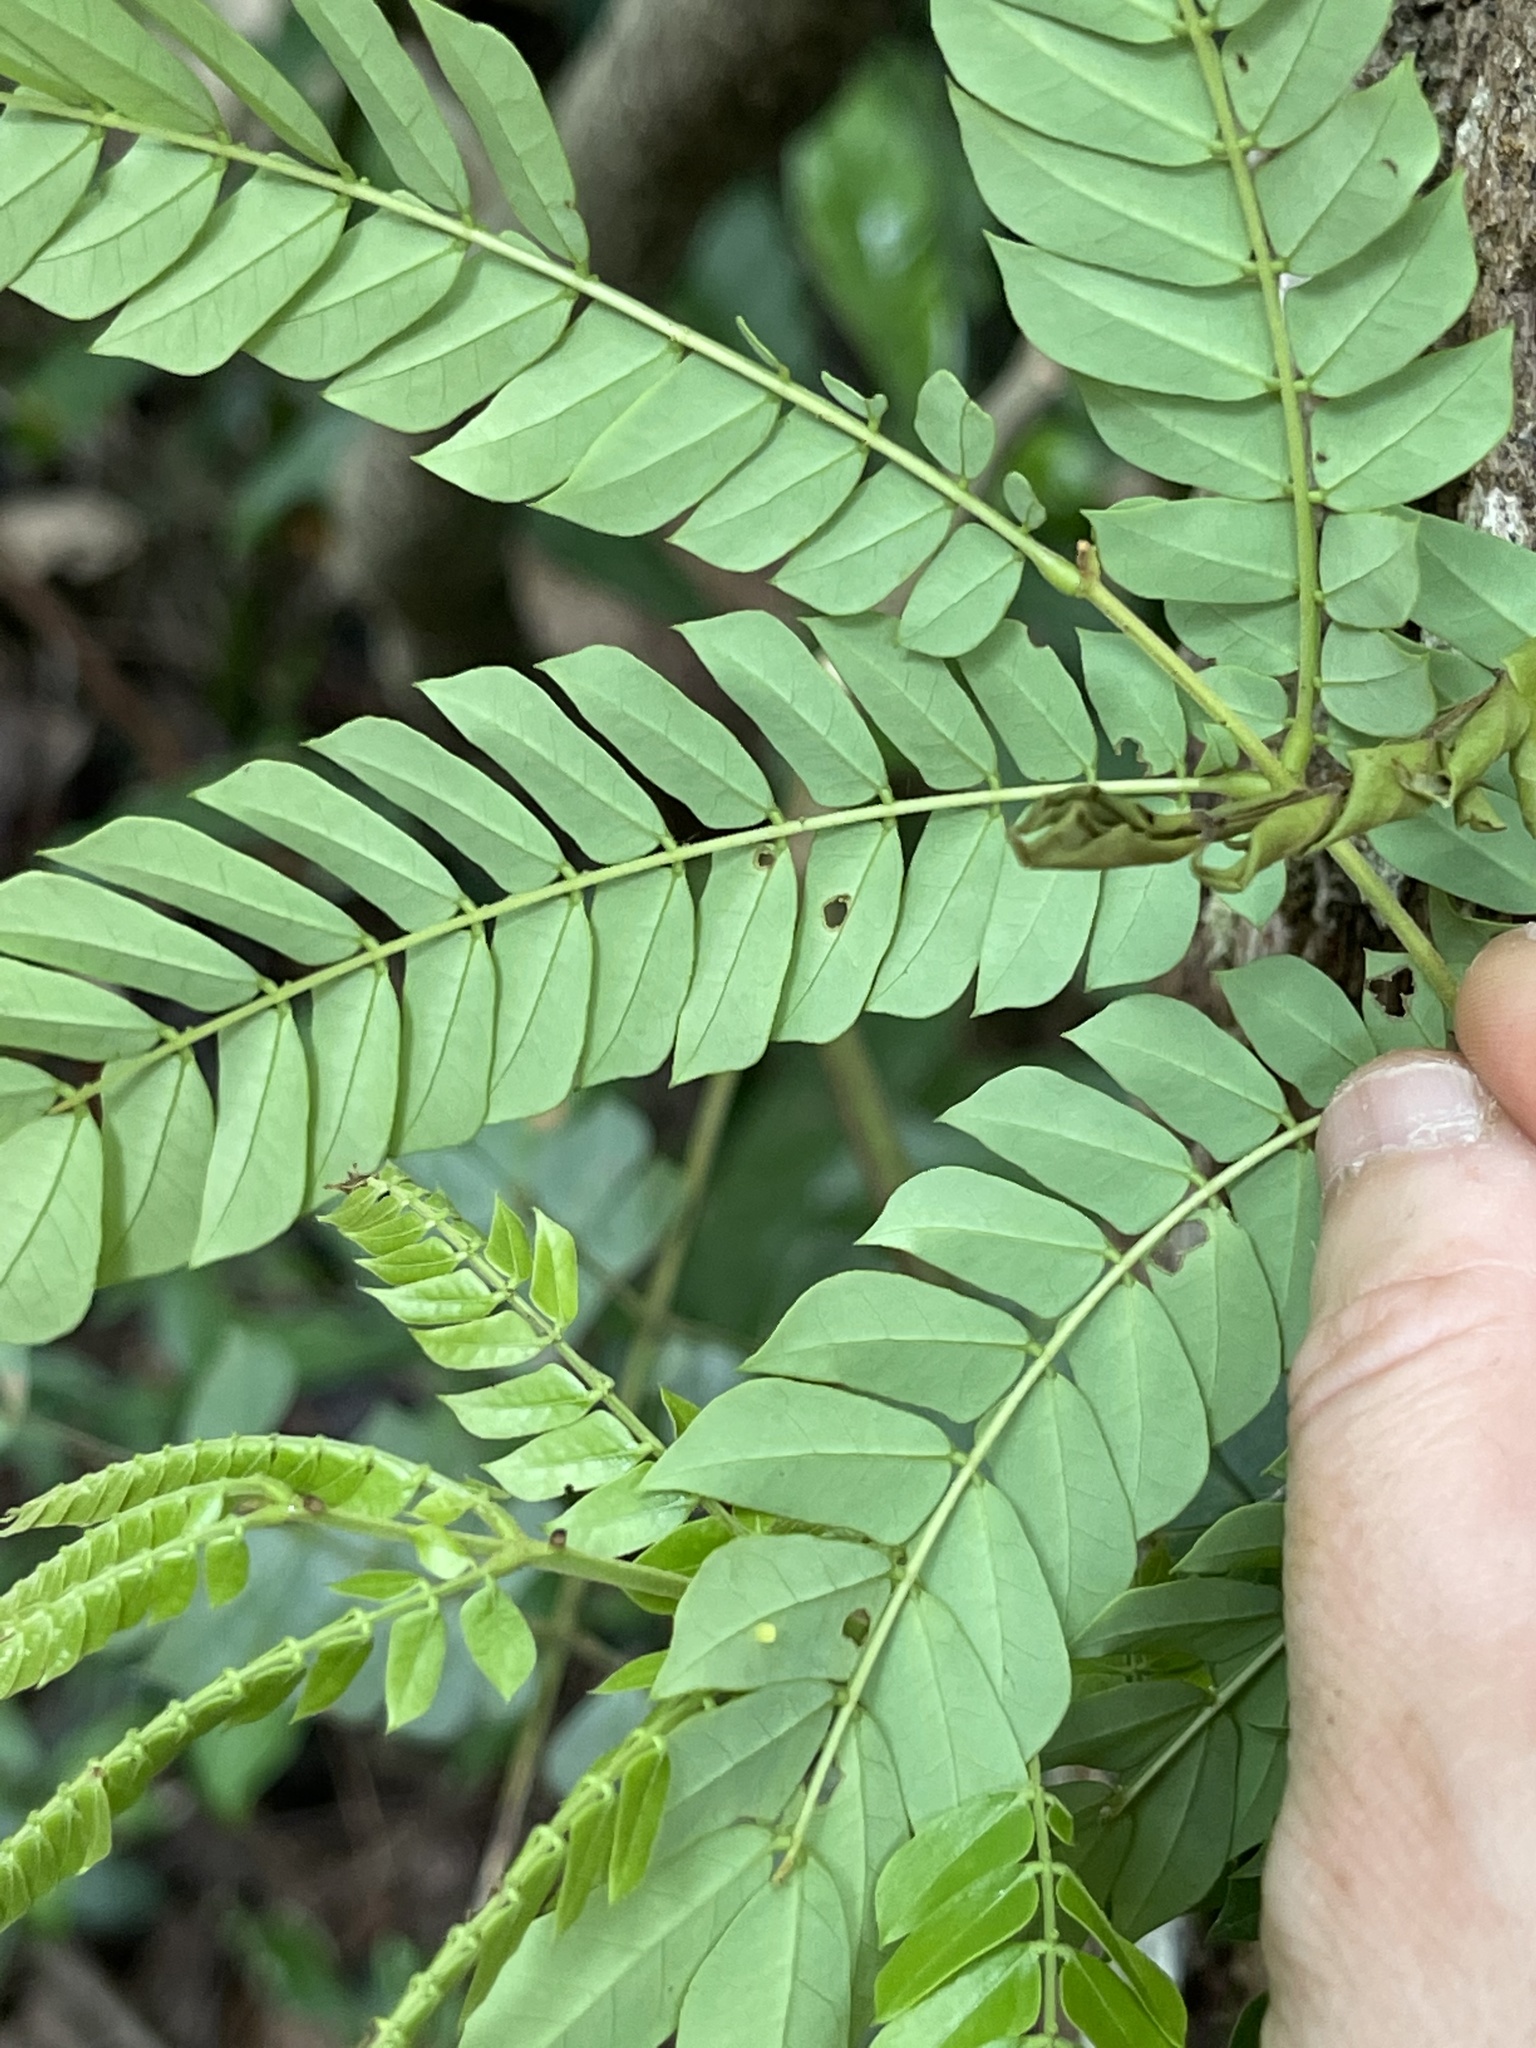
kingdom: Plantae
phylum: Tracheophyta
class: Magnoliopsida
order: Fabales
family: Fabaceae
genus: Archidendron
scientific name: Archidendron clypearia
